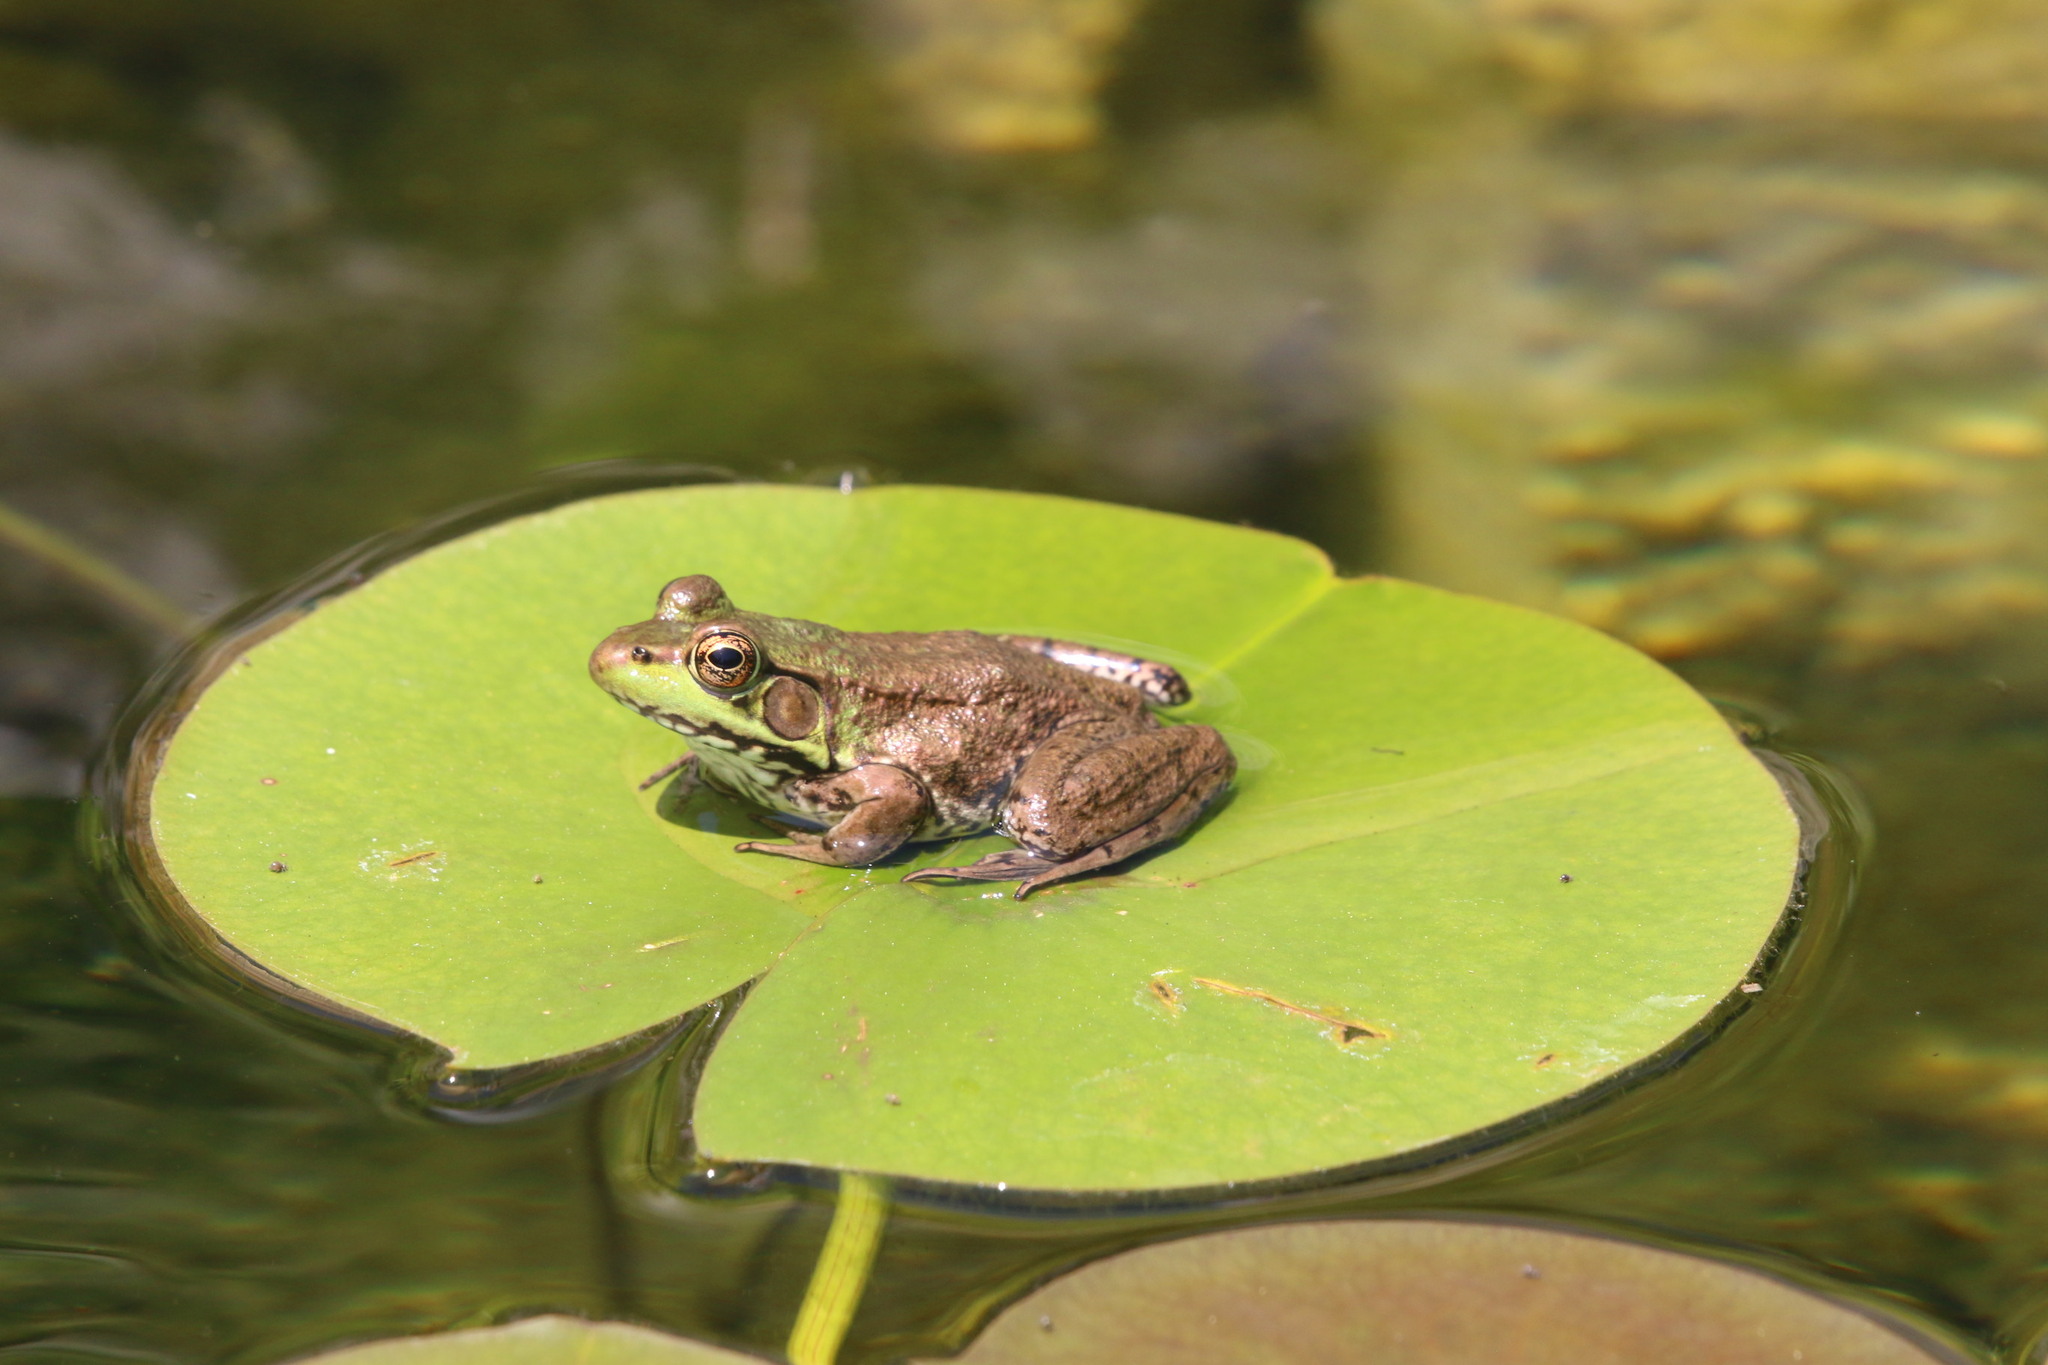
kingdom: Animalia
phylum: Chordata
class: Amphibia
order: Anura
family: Ranidae
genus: Lithobates
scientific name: Lithobates clamitans
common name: Green frog
